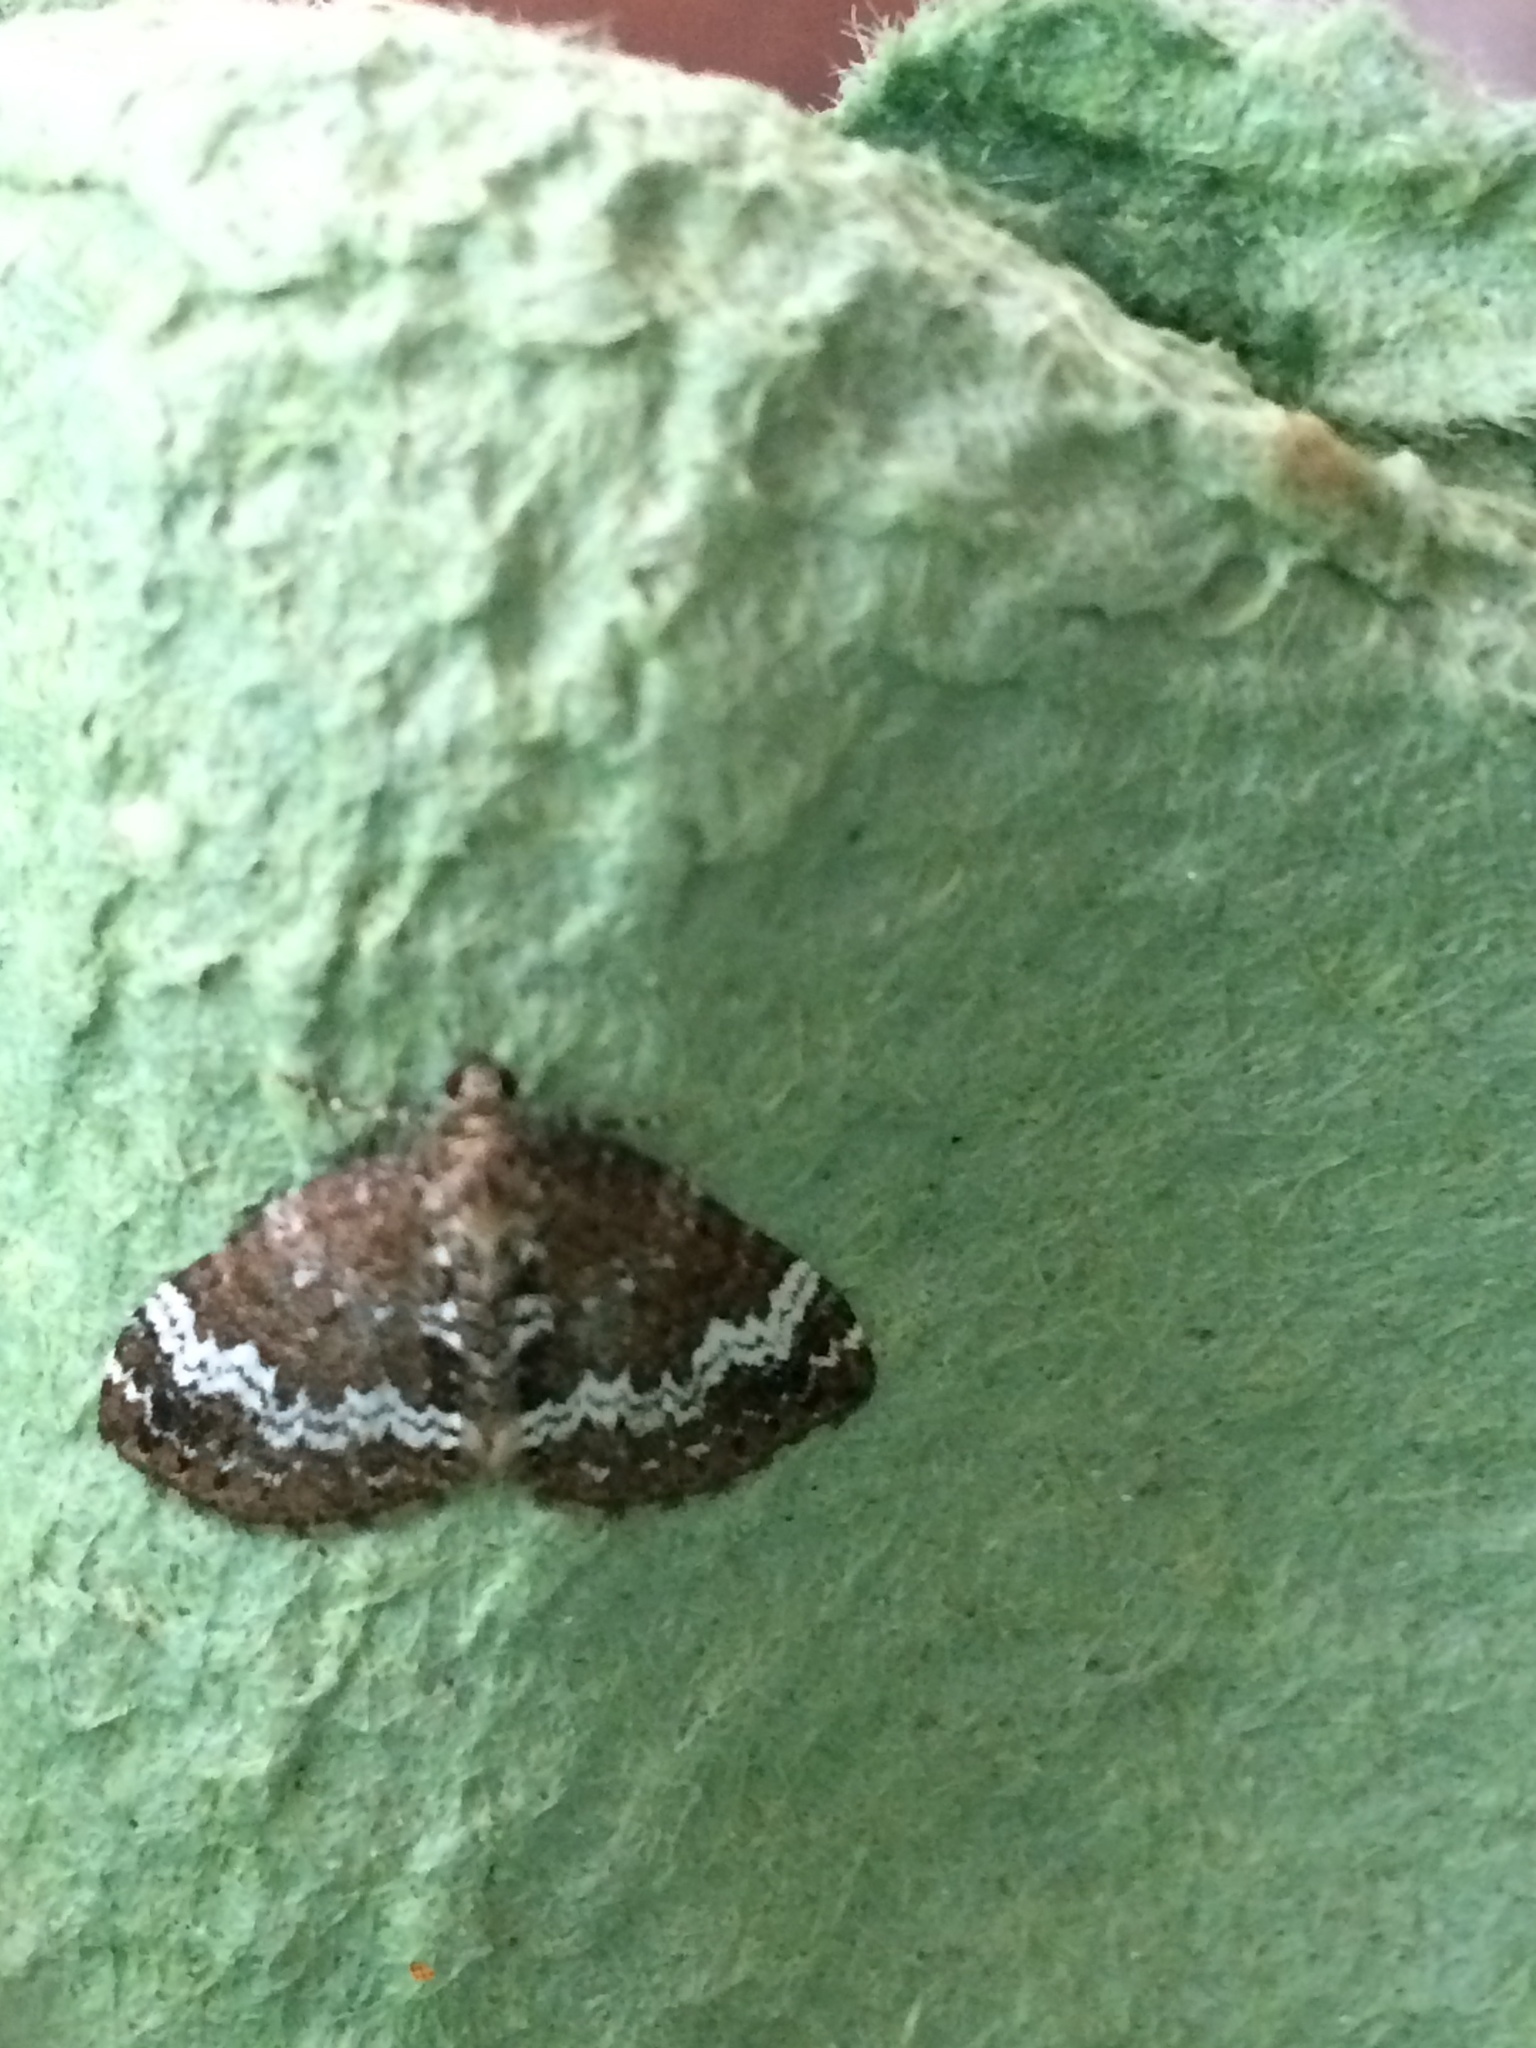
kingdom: Animalia
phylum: Arthropoda
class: Insecta
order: Lepidoptera
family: Geometridae
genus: Perizoma
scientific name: Perizoma alchemillata
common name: Small rivulet
